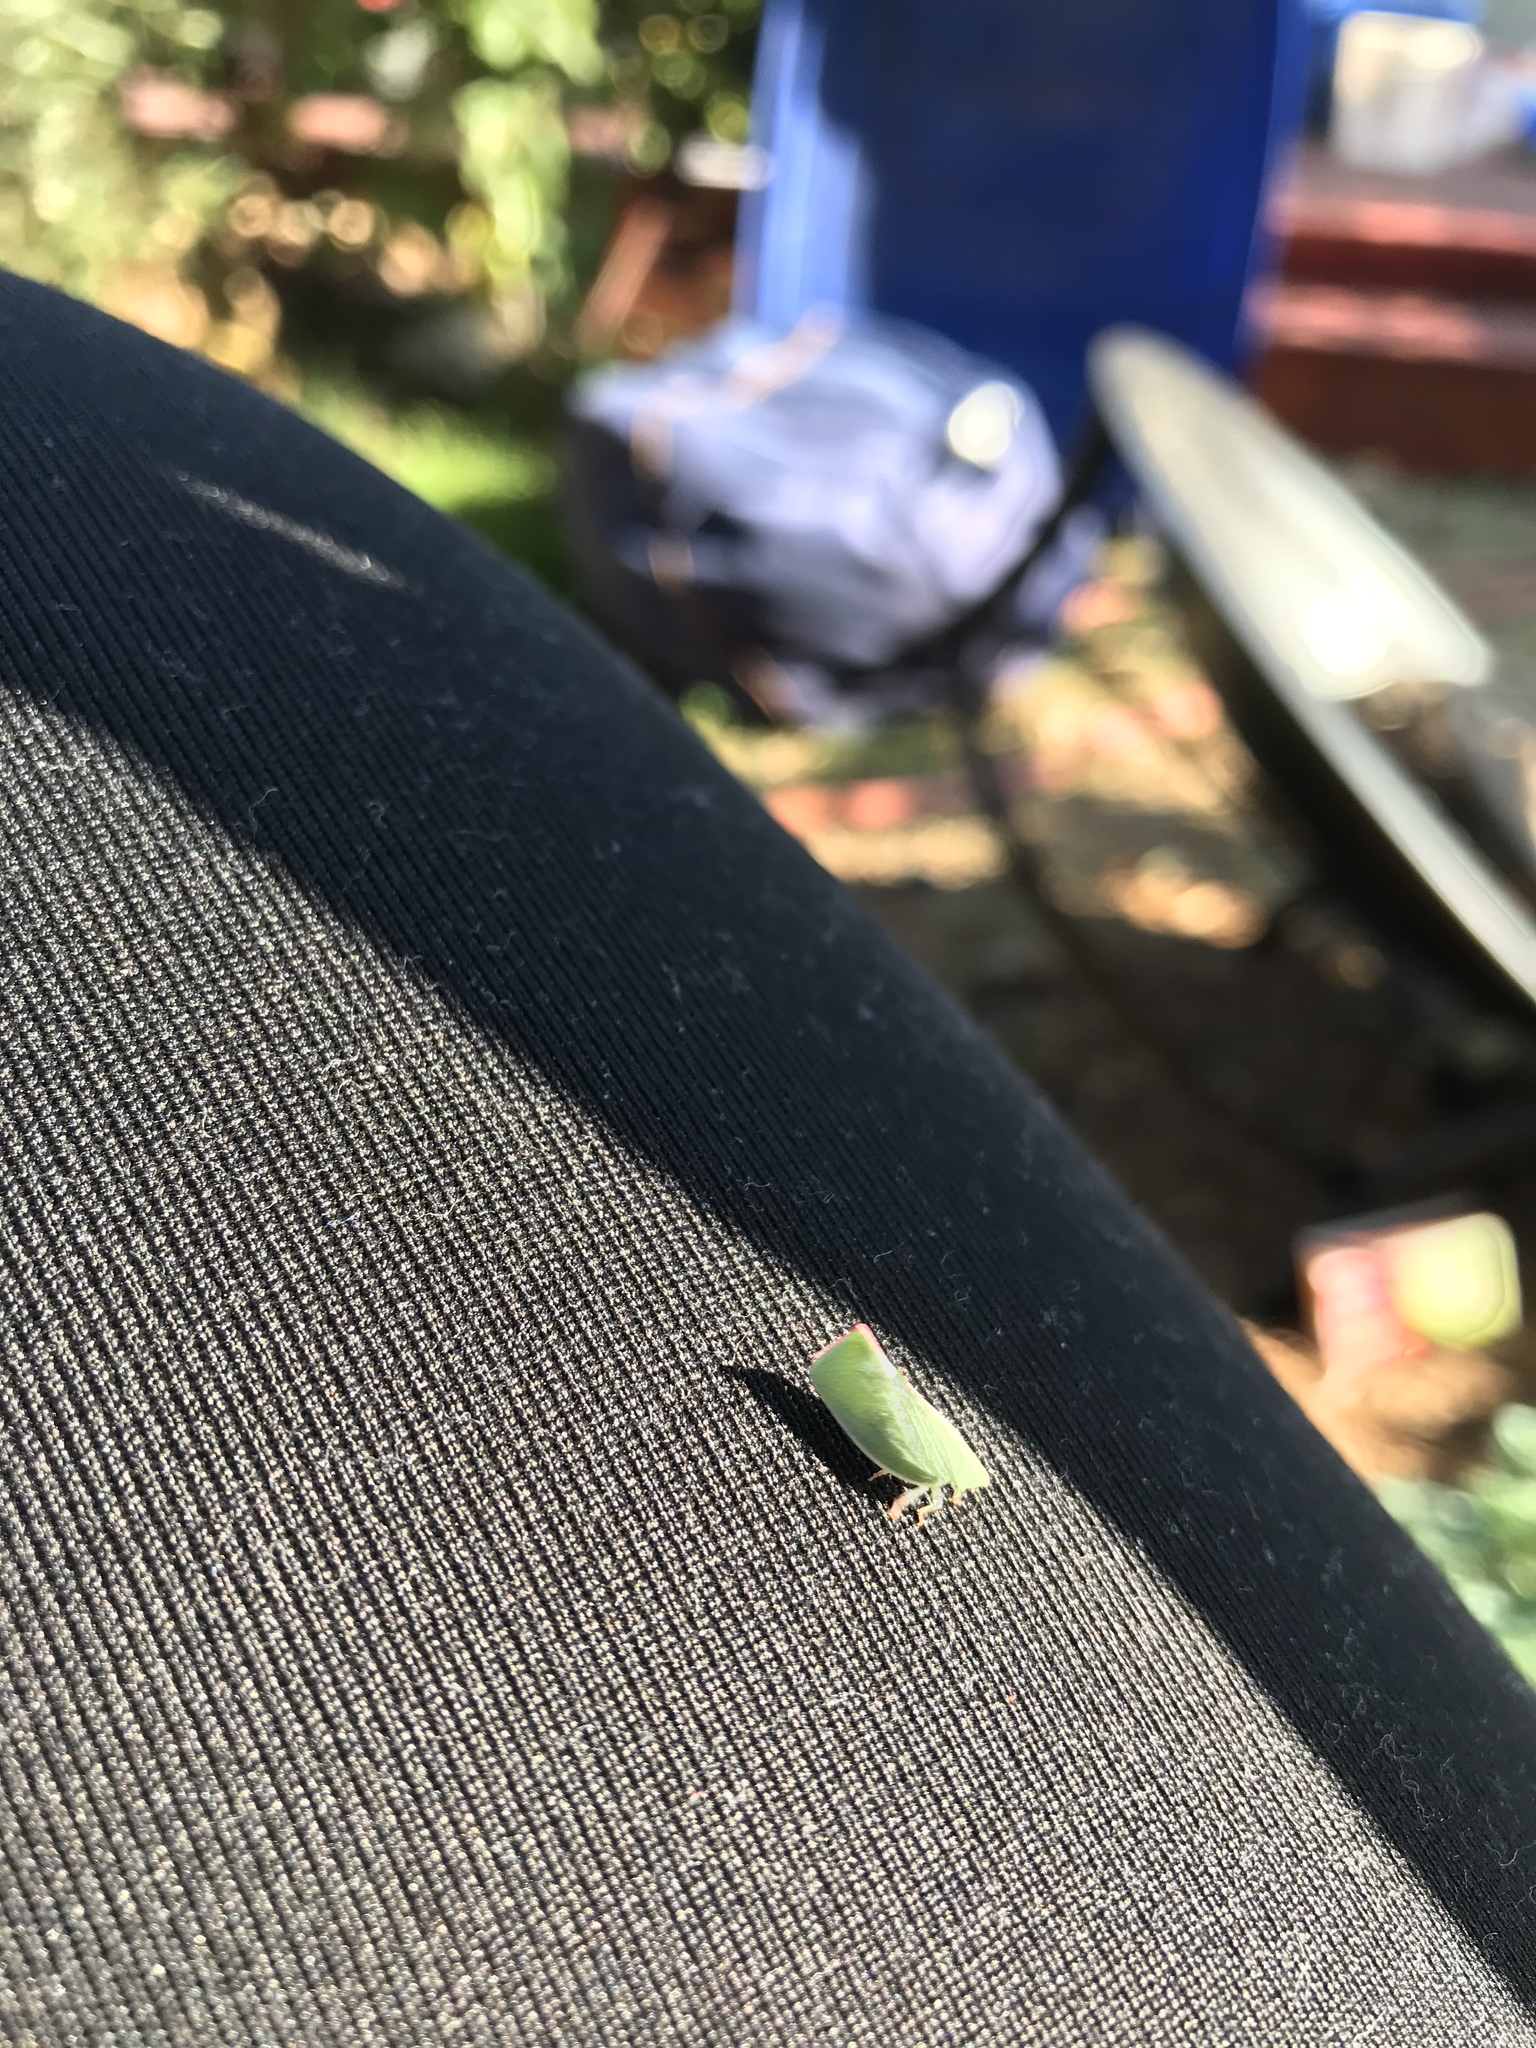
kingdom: Animalia
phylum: Arthropoda
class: Insecta
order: Hemiptera
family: Flatidae
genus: Siphanta
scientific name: Siphanta acuta
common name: Torpedo bug
